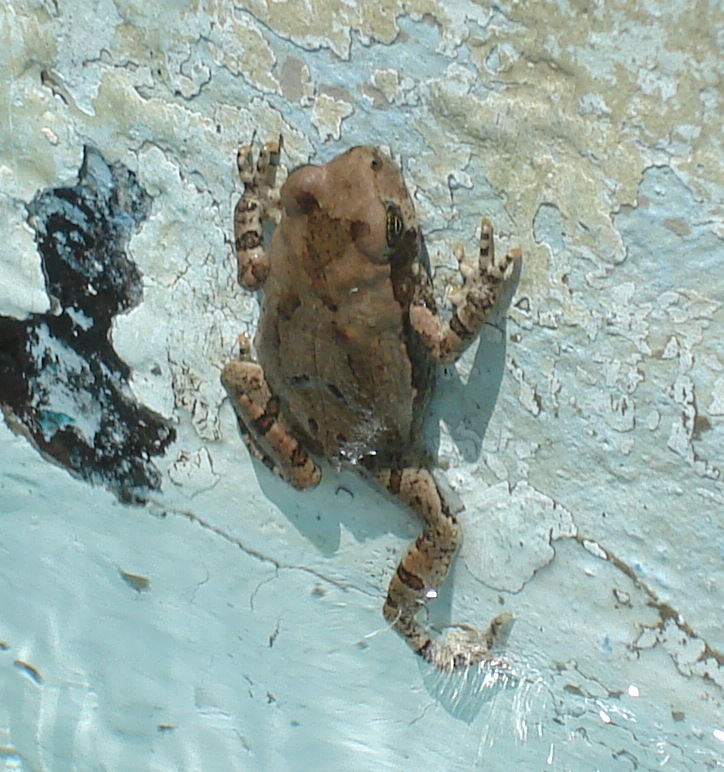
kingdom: Animalia
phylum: Chordata
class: Amphibia
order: Anura
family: Bufonidae
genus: Schismaderma
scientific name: Schismaderma carens
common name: African split-skin toad
